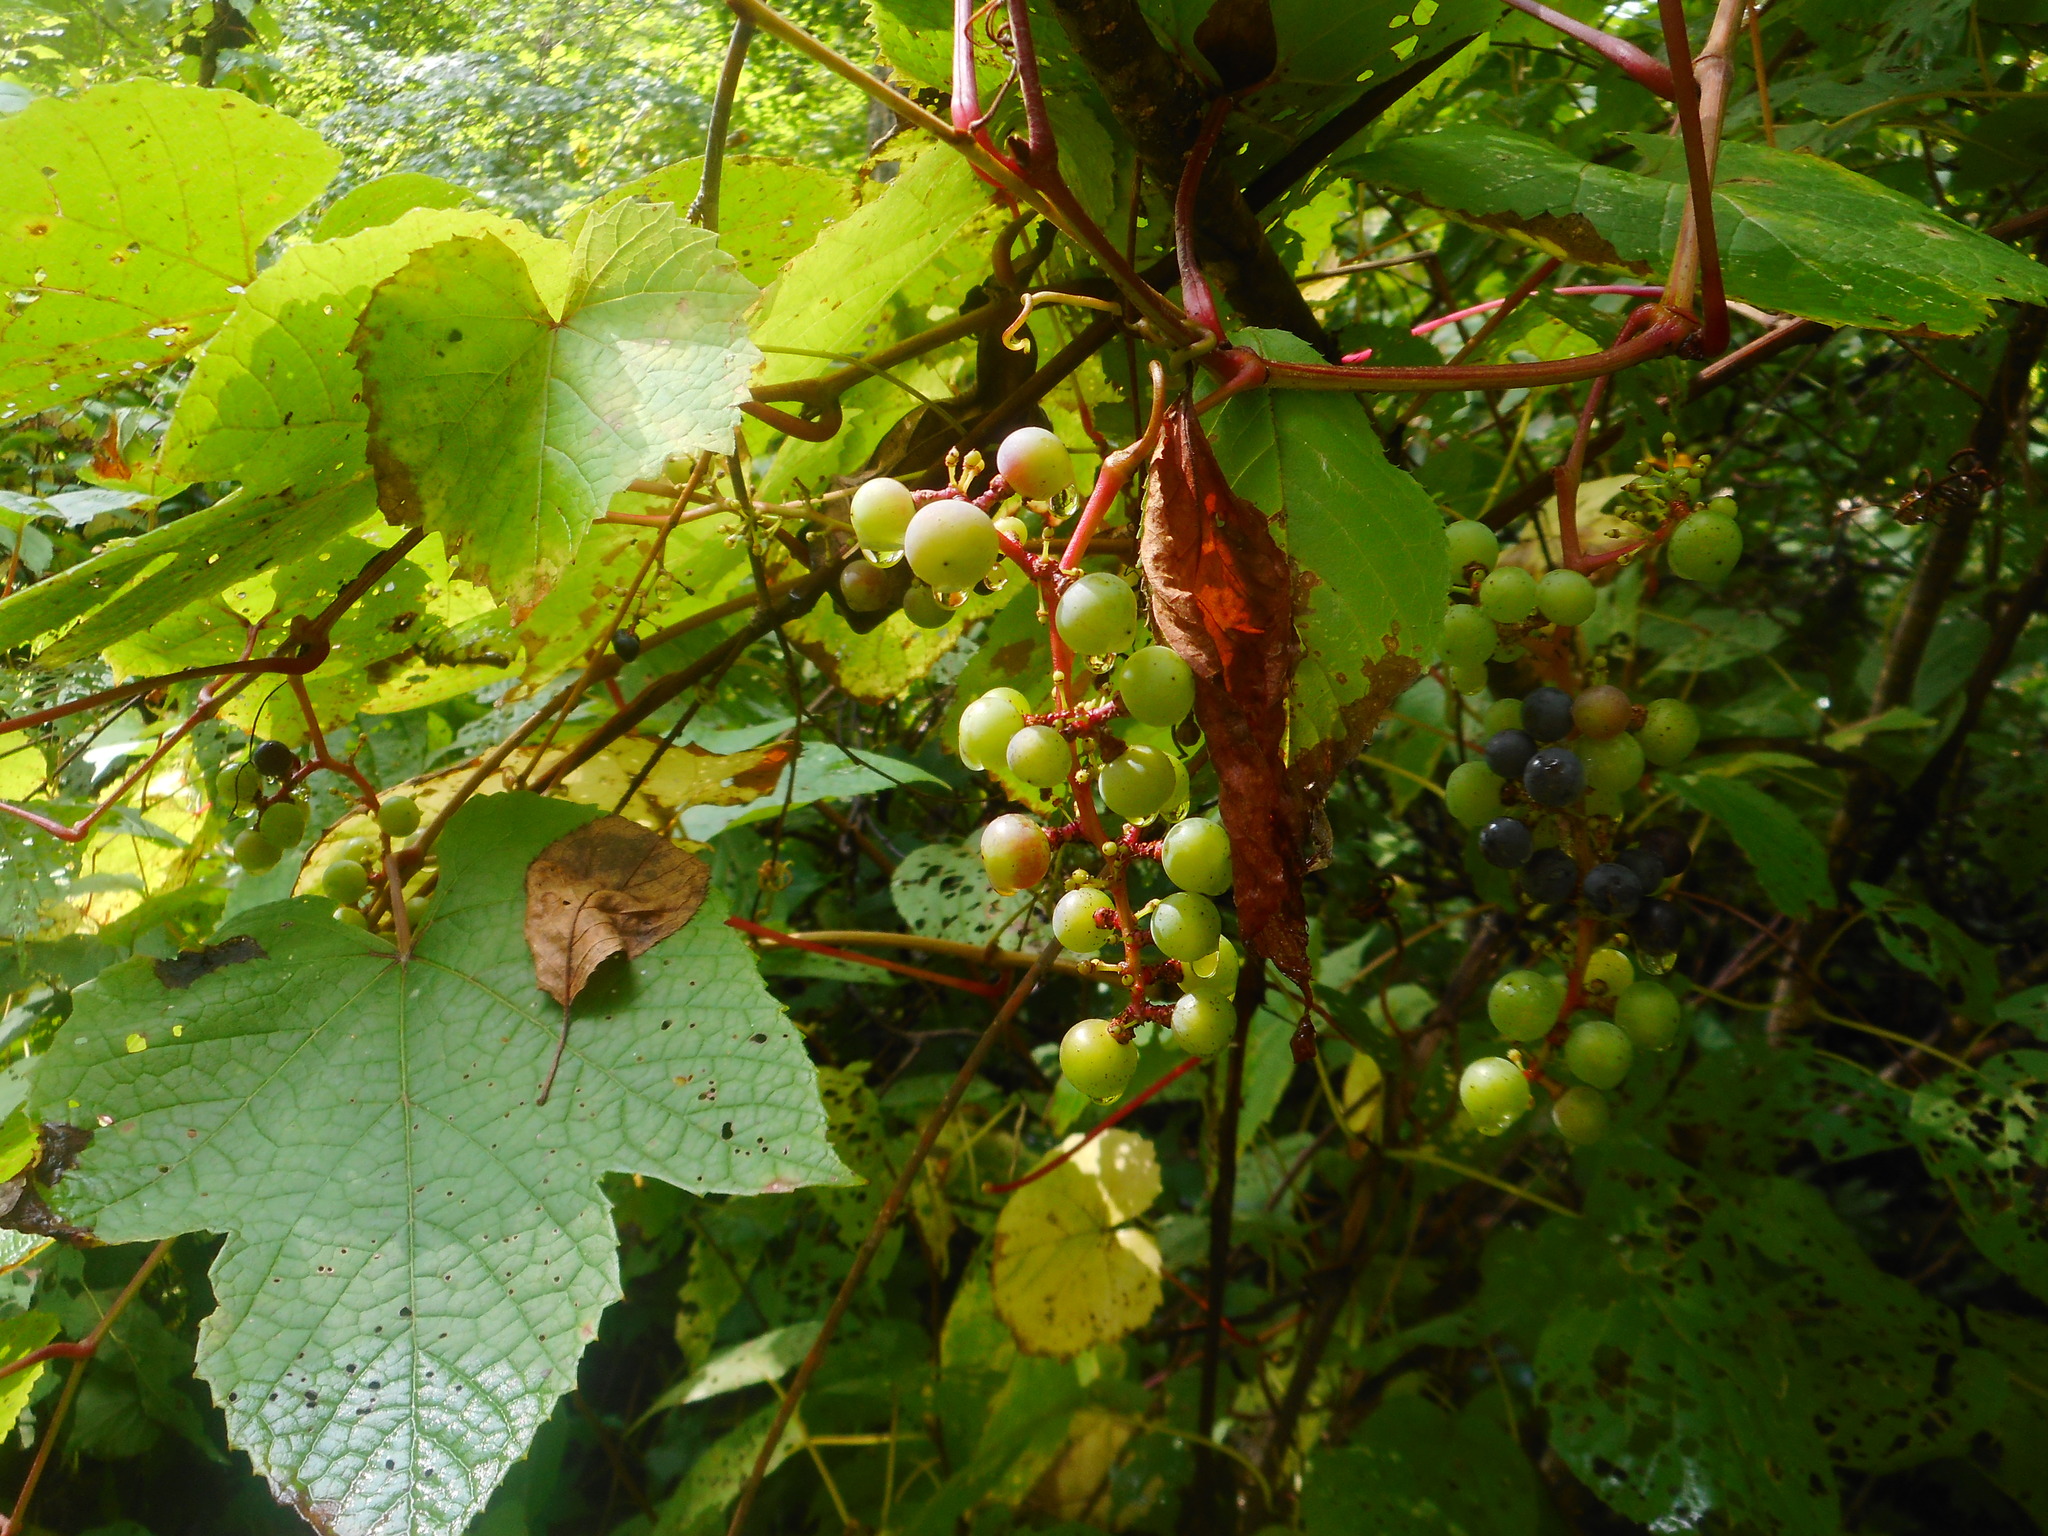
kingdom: Plantae
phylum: Tracheophyta
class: Magnoliopsida
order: Vitales
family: Vitaceae
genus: Vitis
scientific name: Vitis amurensis
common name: Amur grape
